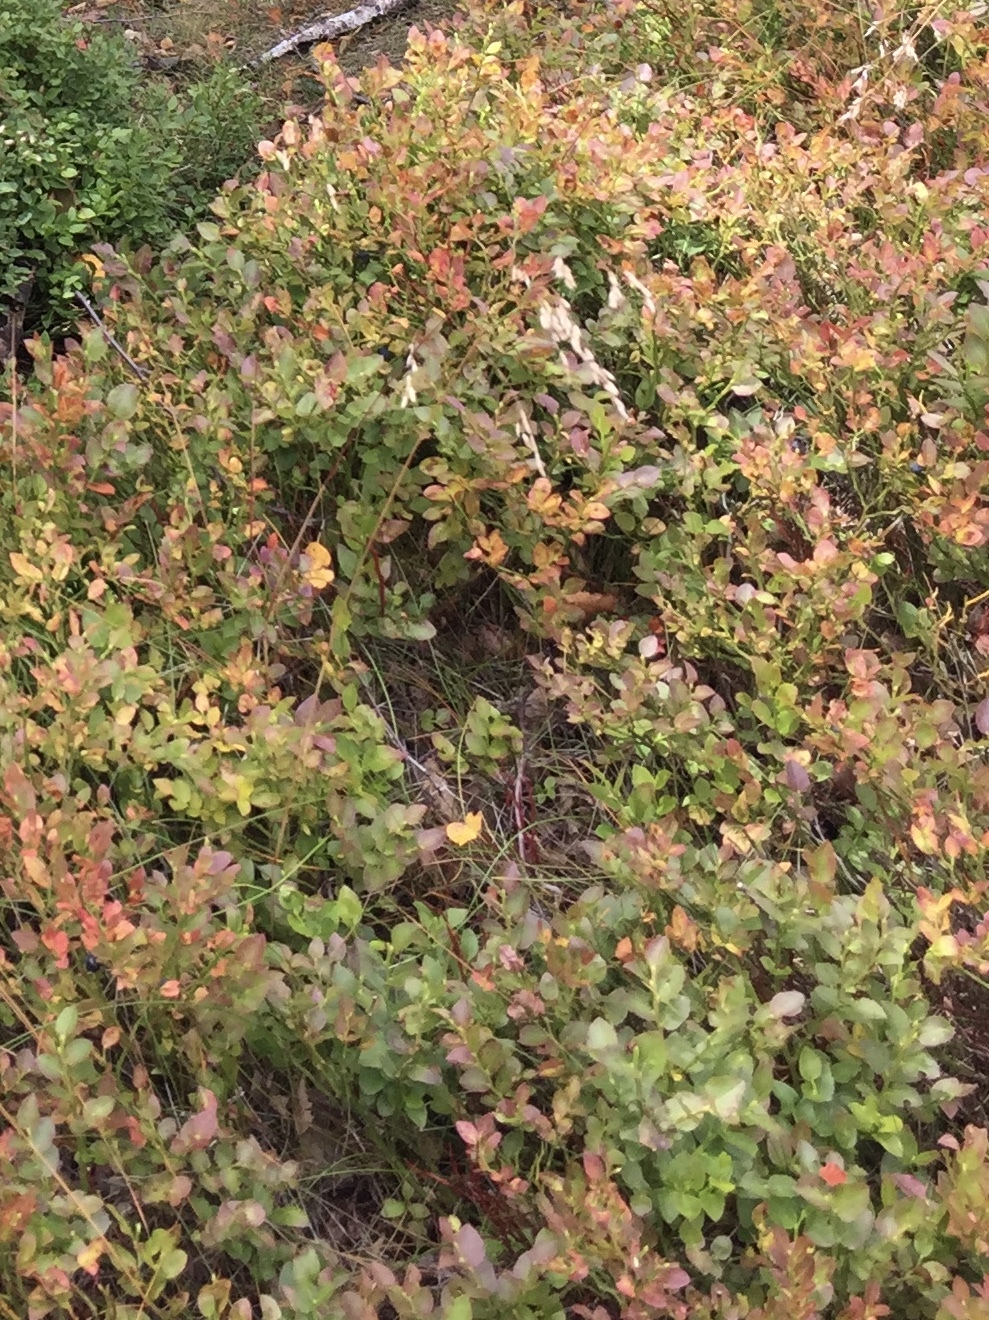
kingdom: Plantae
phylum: Tracheophyta
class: Magnoliopsida
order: Ericales
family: Ericaceae
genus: Vaccinium
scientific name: Vaccinium myrtillus
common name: Bilberry
